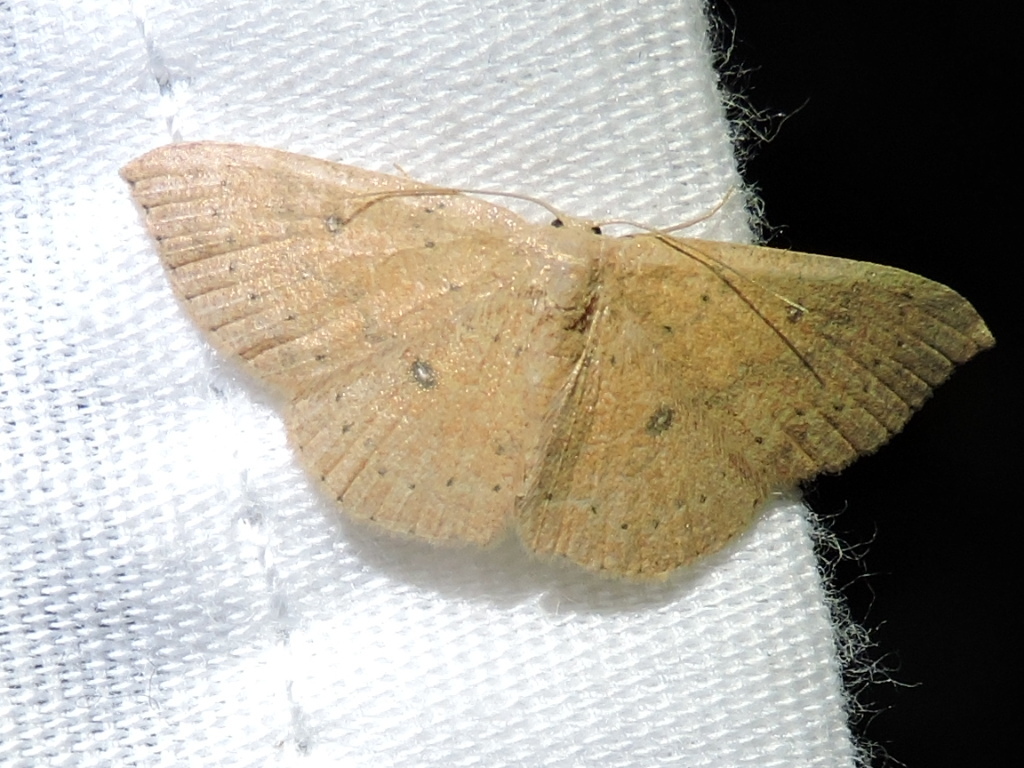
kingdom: Animalia
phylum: Arthropoda
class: Insecta
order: Lepidoptera
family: Geometridae
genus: Cyclophora
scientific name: Cyclophora packardi
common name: Packard's wave
